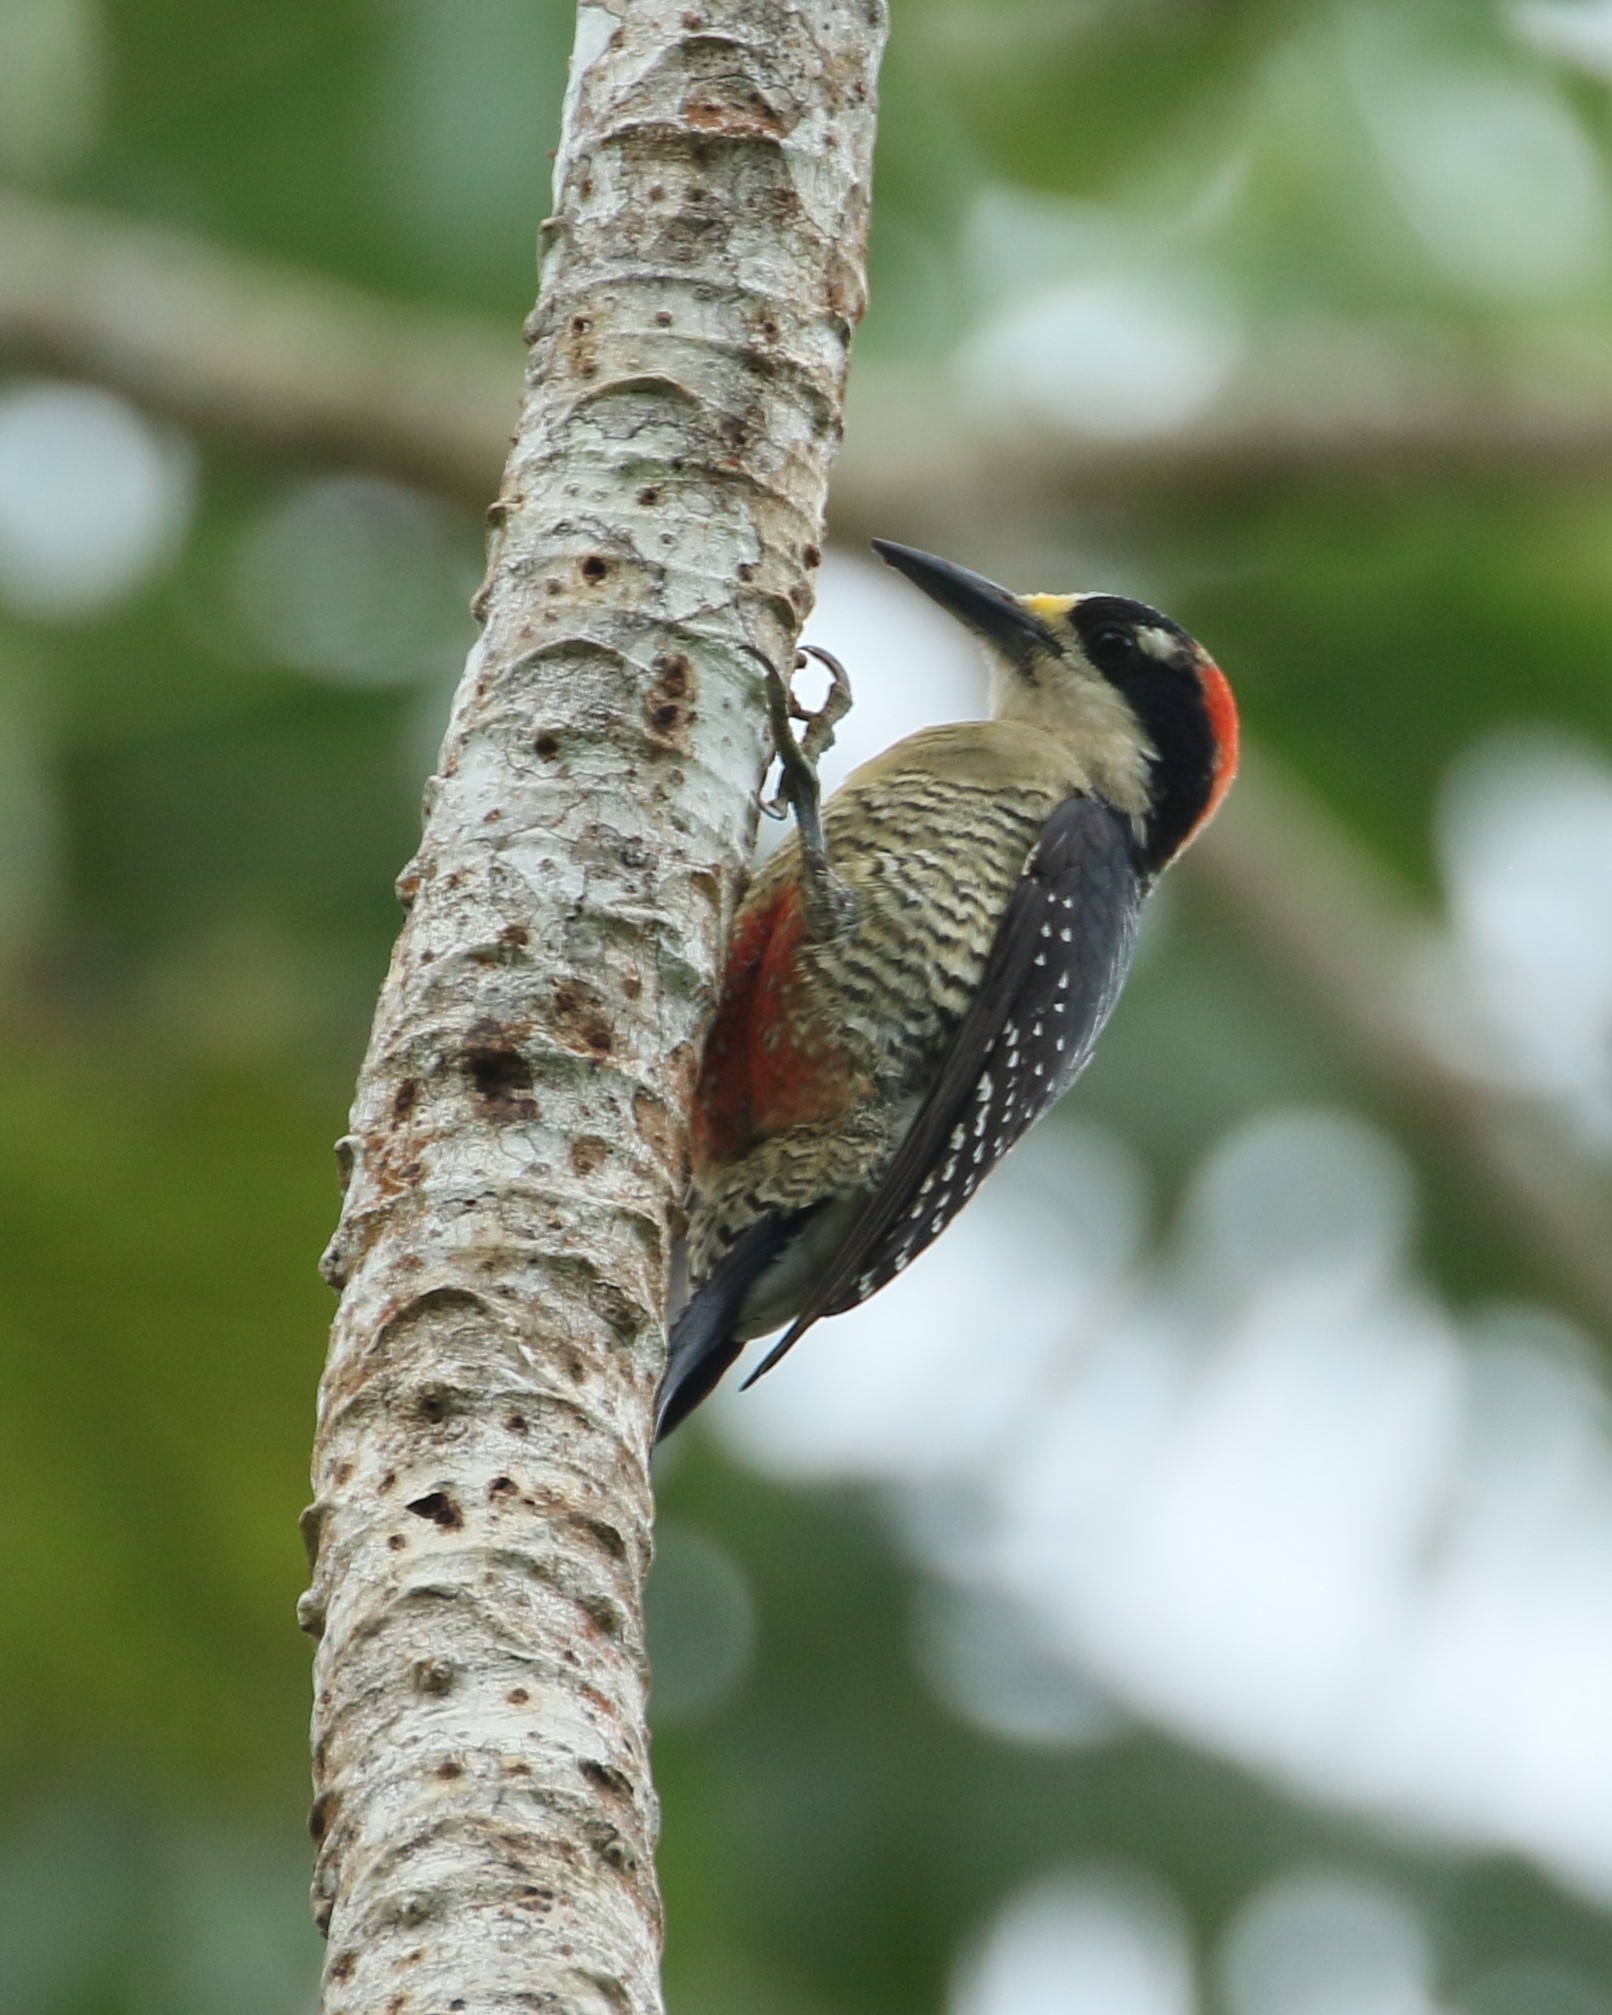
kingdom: Animalia
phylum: Chordata
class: Aves
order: Piciformes
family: Picidae
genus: Melanerpes
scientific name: Melanerpes pucherani
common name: Black-cheeked woodpecker
